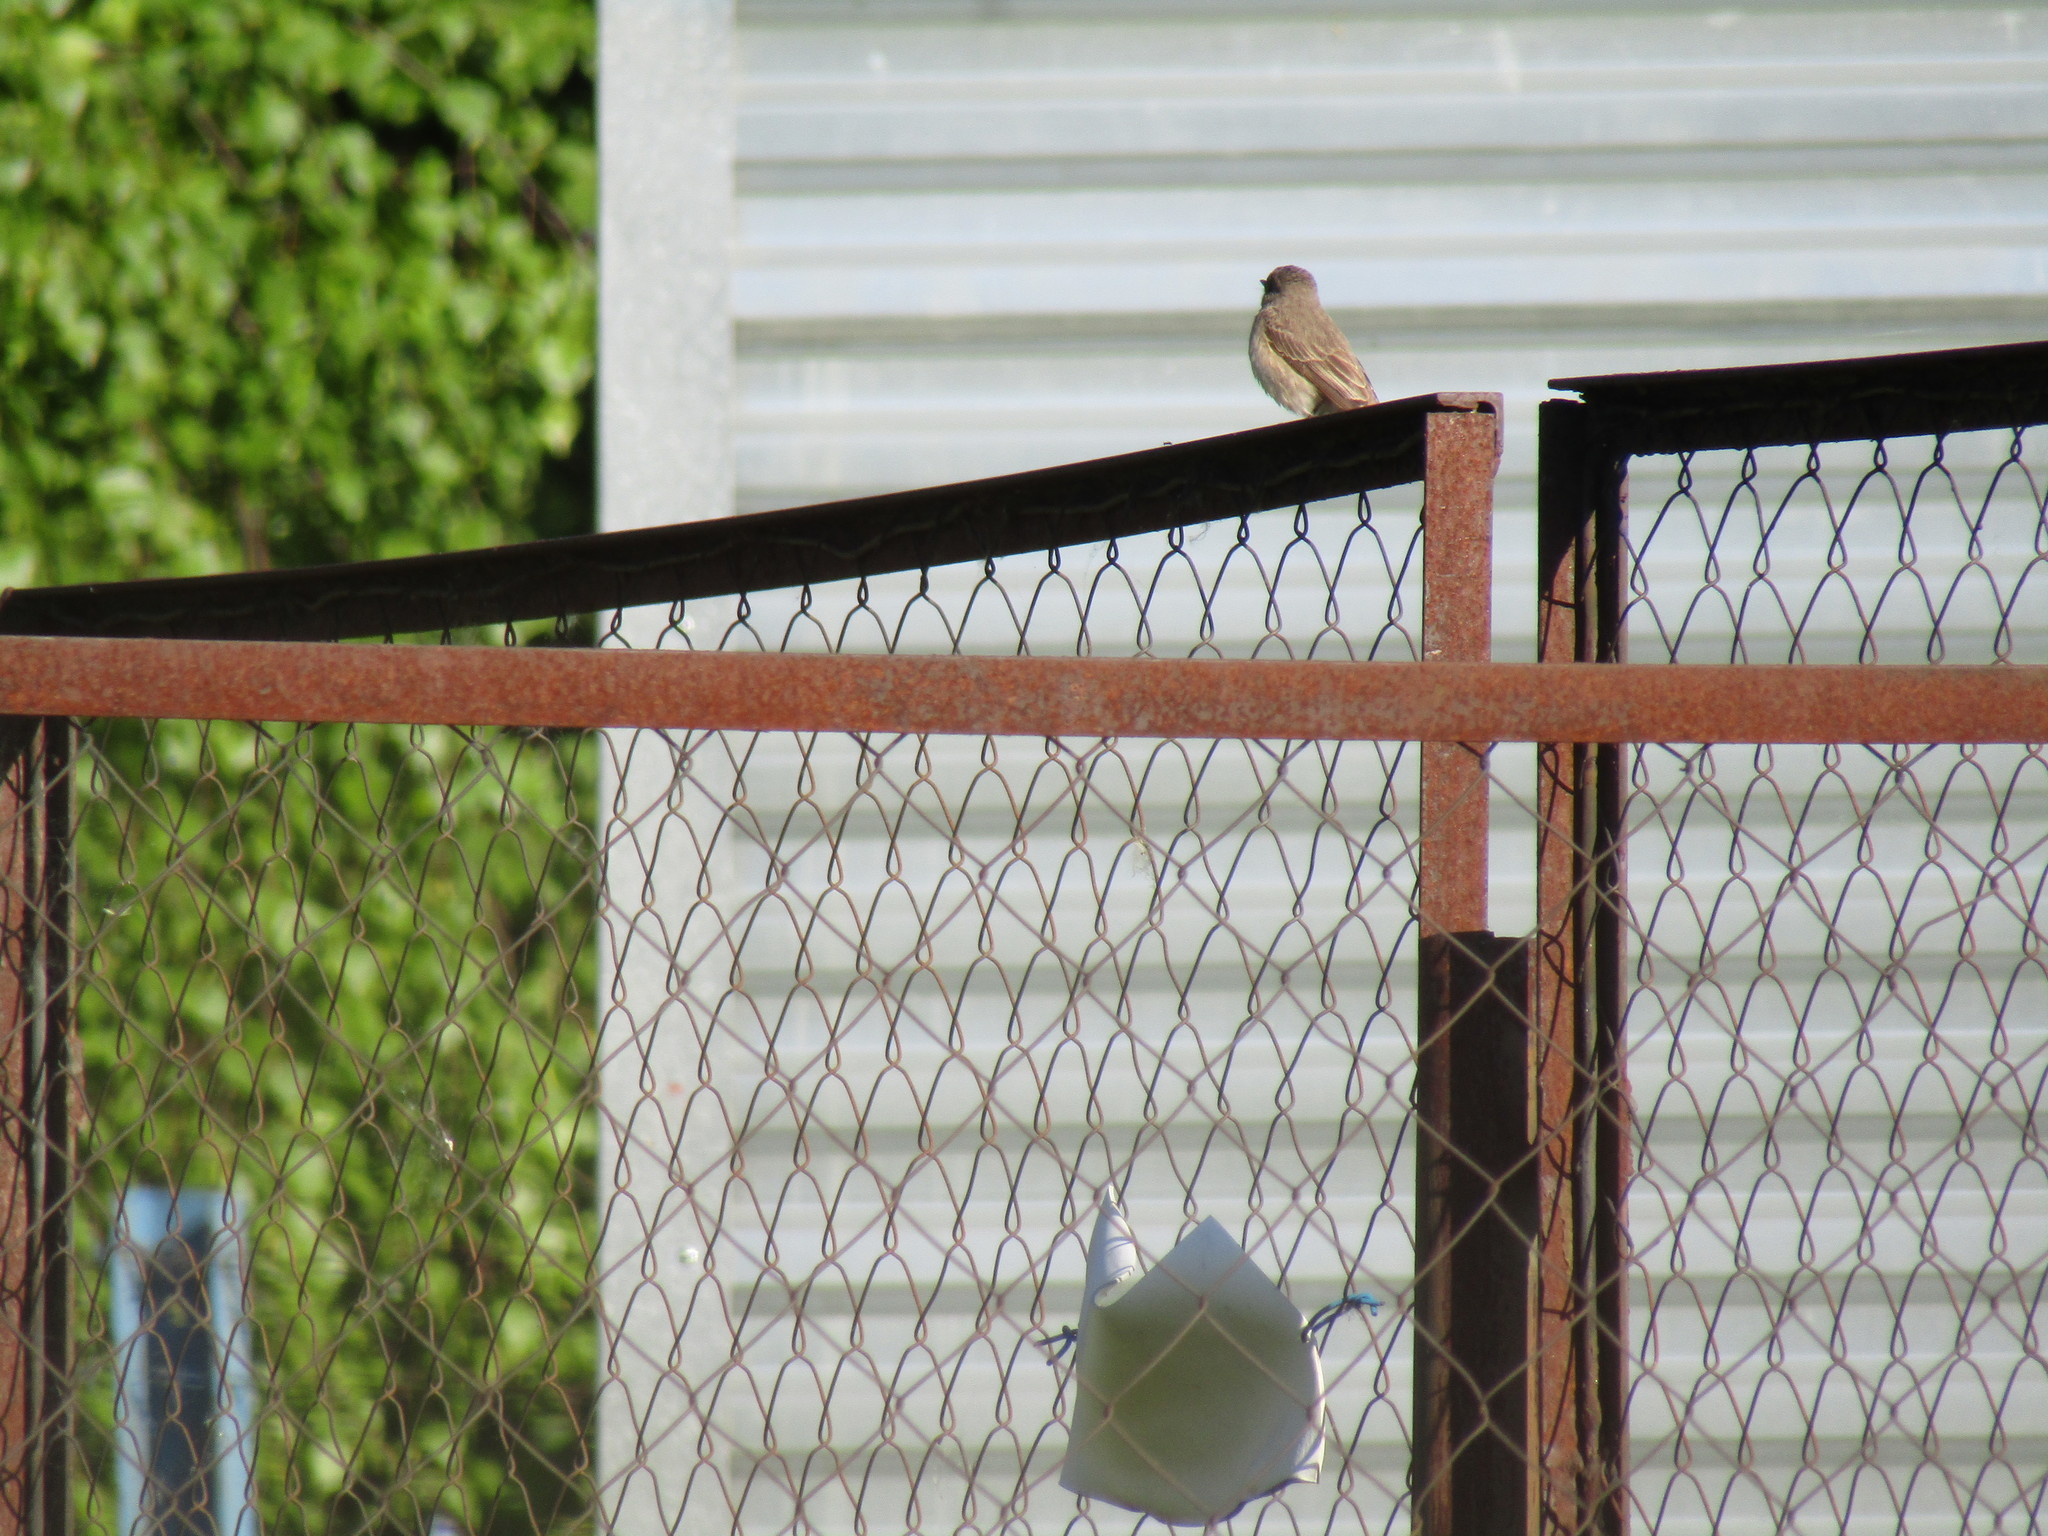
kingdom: Animalia
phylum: Chordata
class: Aves
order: Passeriformes
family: Muscicapidae
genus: Muscicapa
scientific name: Muscicapa striata
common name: Spotted flycatcher
